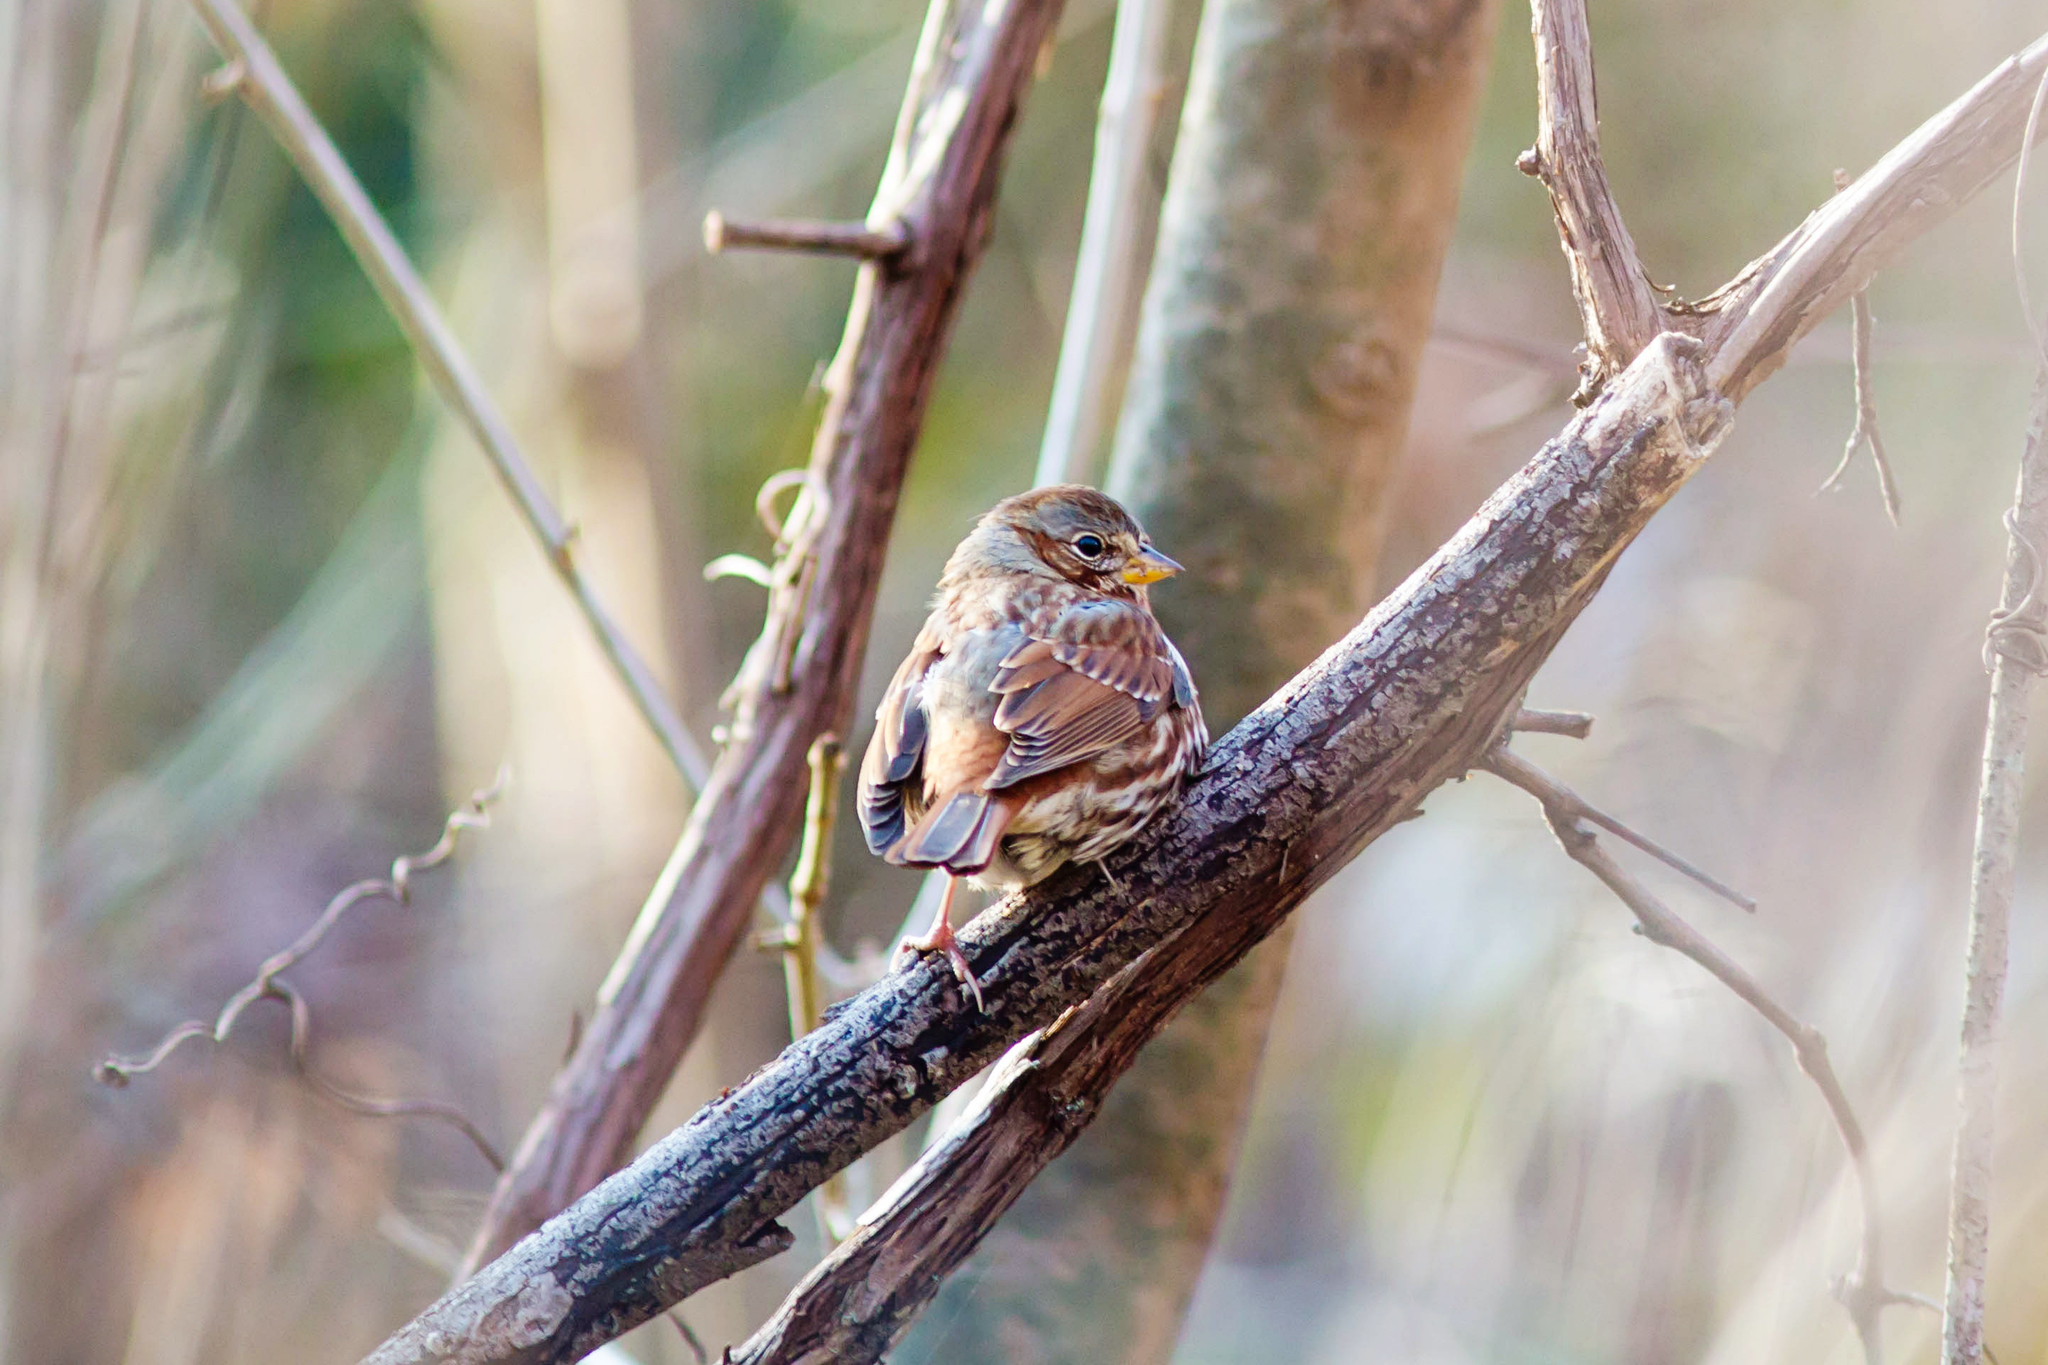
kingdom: Animalia
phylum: Chordata
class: Aves
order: Passeriformes
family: Passerellidae
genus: Passerella
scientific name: Passerella iliaca
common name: Fox sparrow
